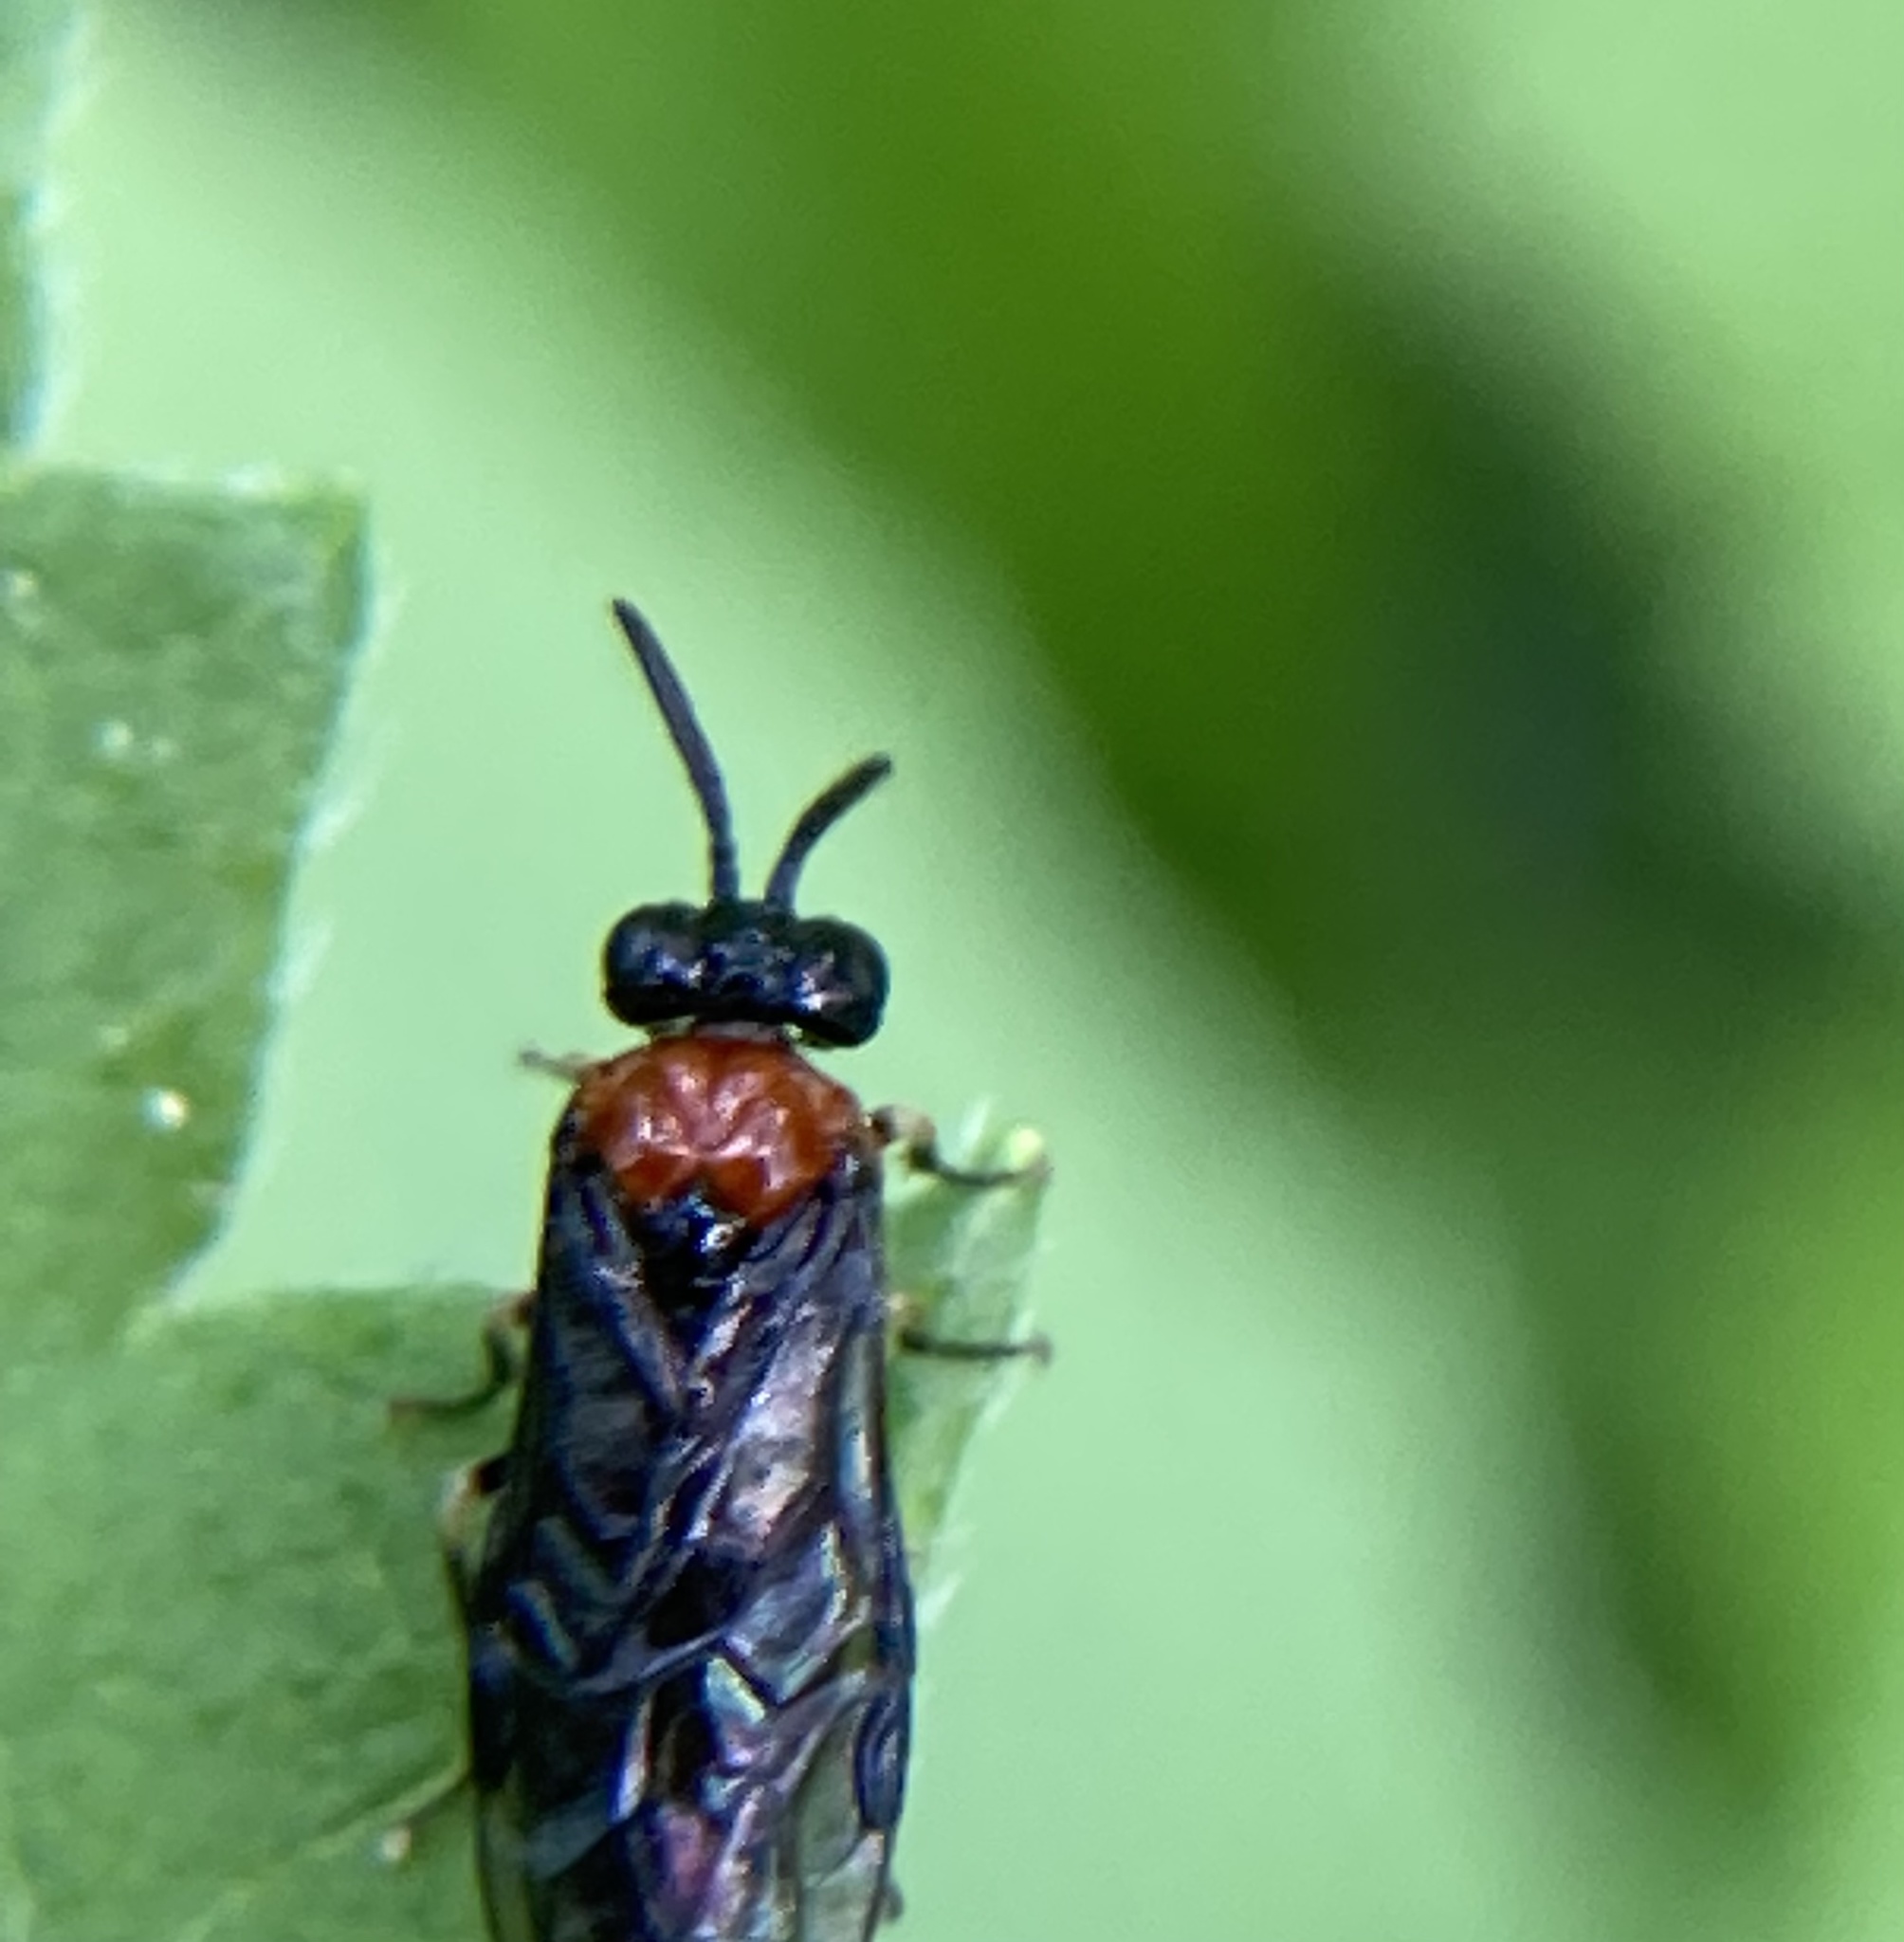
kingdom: Animalia
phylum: Arthropoda
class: Insecta
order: Hymenoptera
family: Tenthredinidae
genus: Eutomostethus
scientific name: Eutomostethus ephippium
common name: Tenthredid wasp
